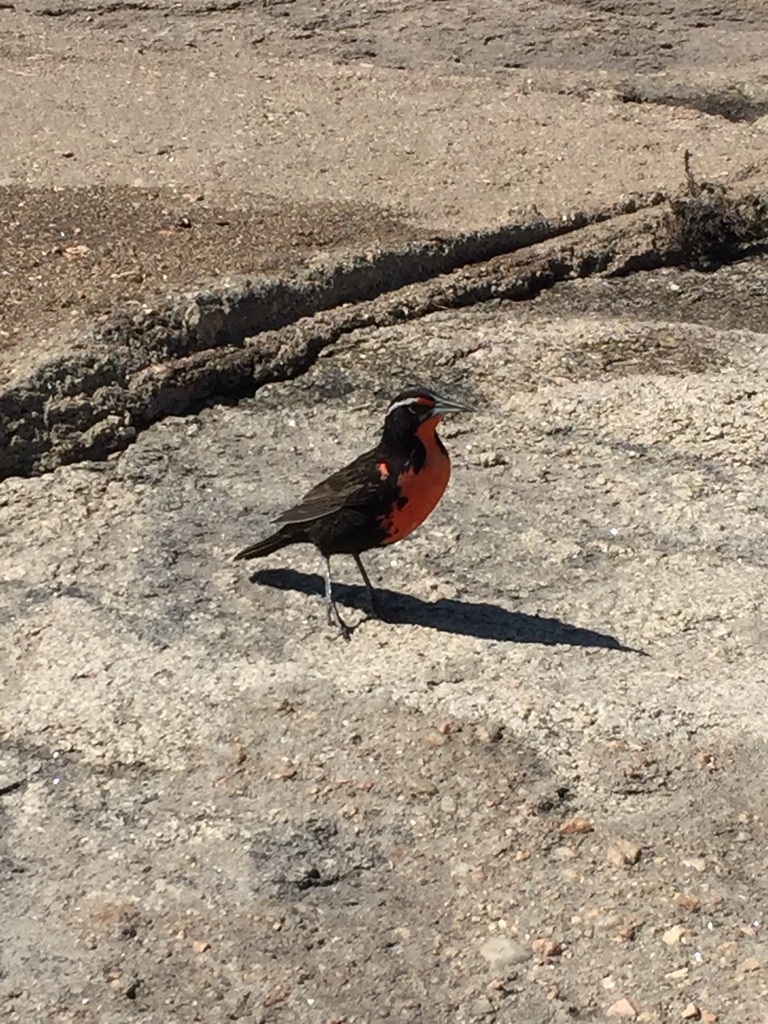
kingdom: Animalia
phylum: Chordata
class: Aves
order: Passeriformes
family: Icteridae
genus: Sturnella
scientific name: Sturnella loyca
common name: Long-tailed meadowlark
